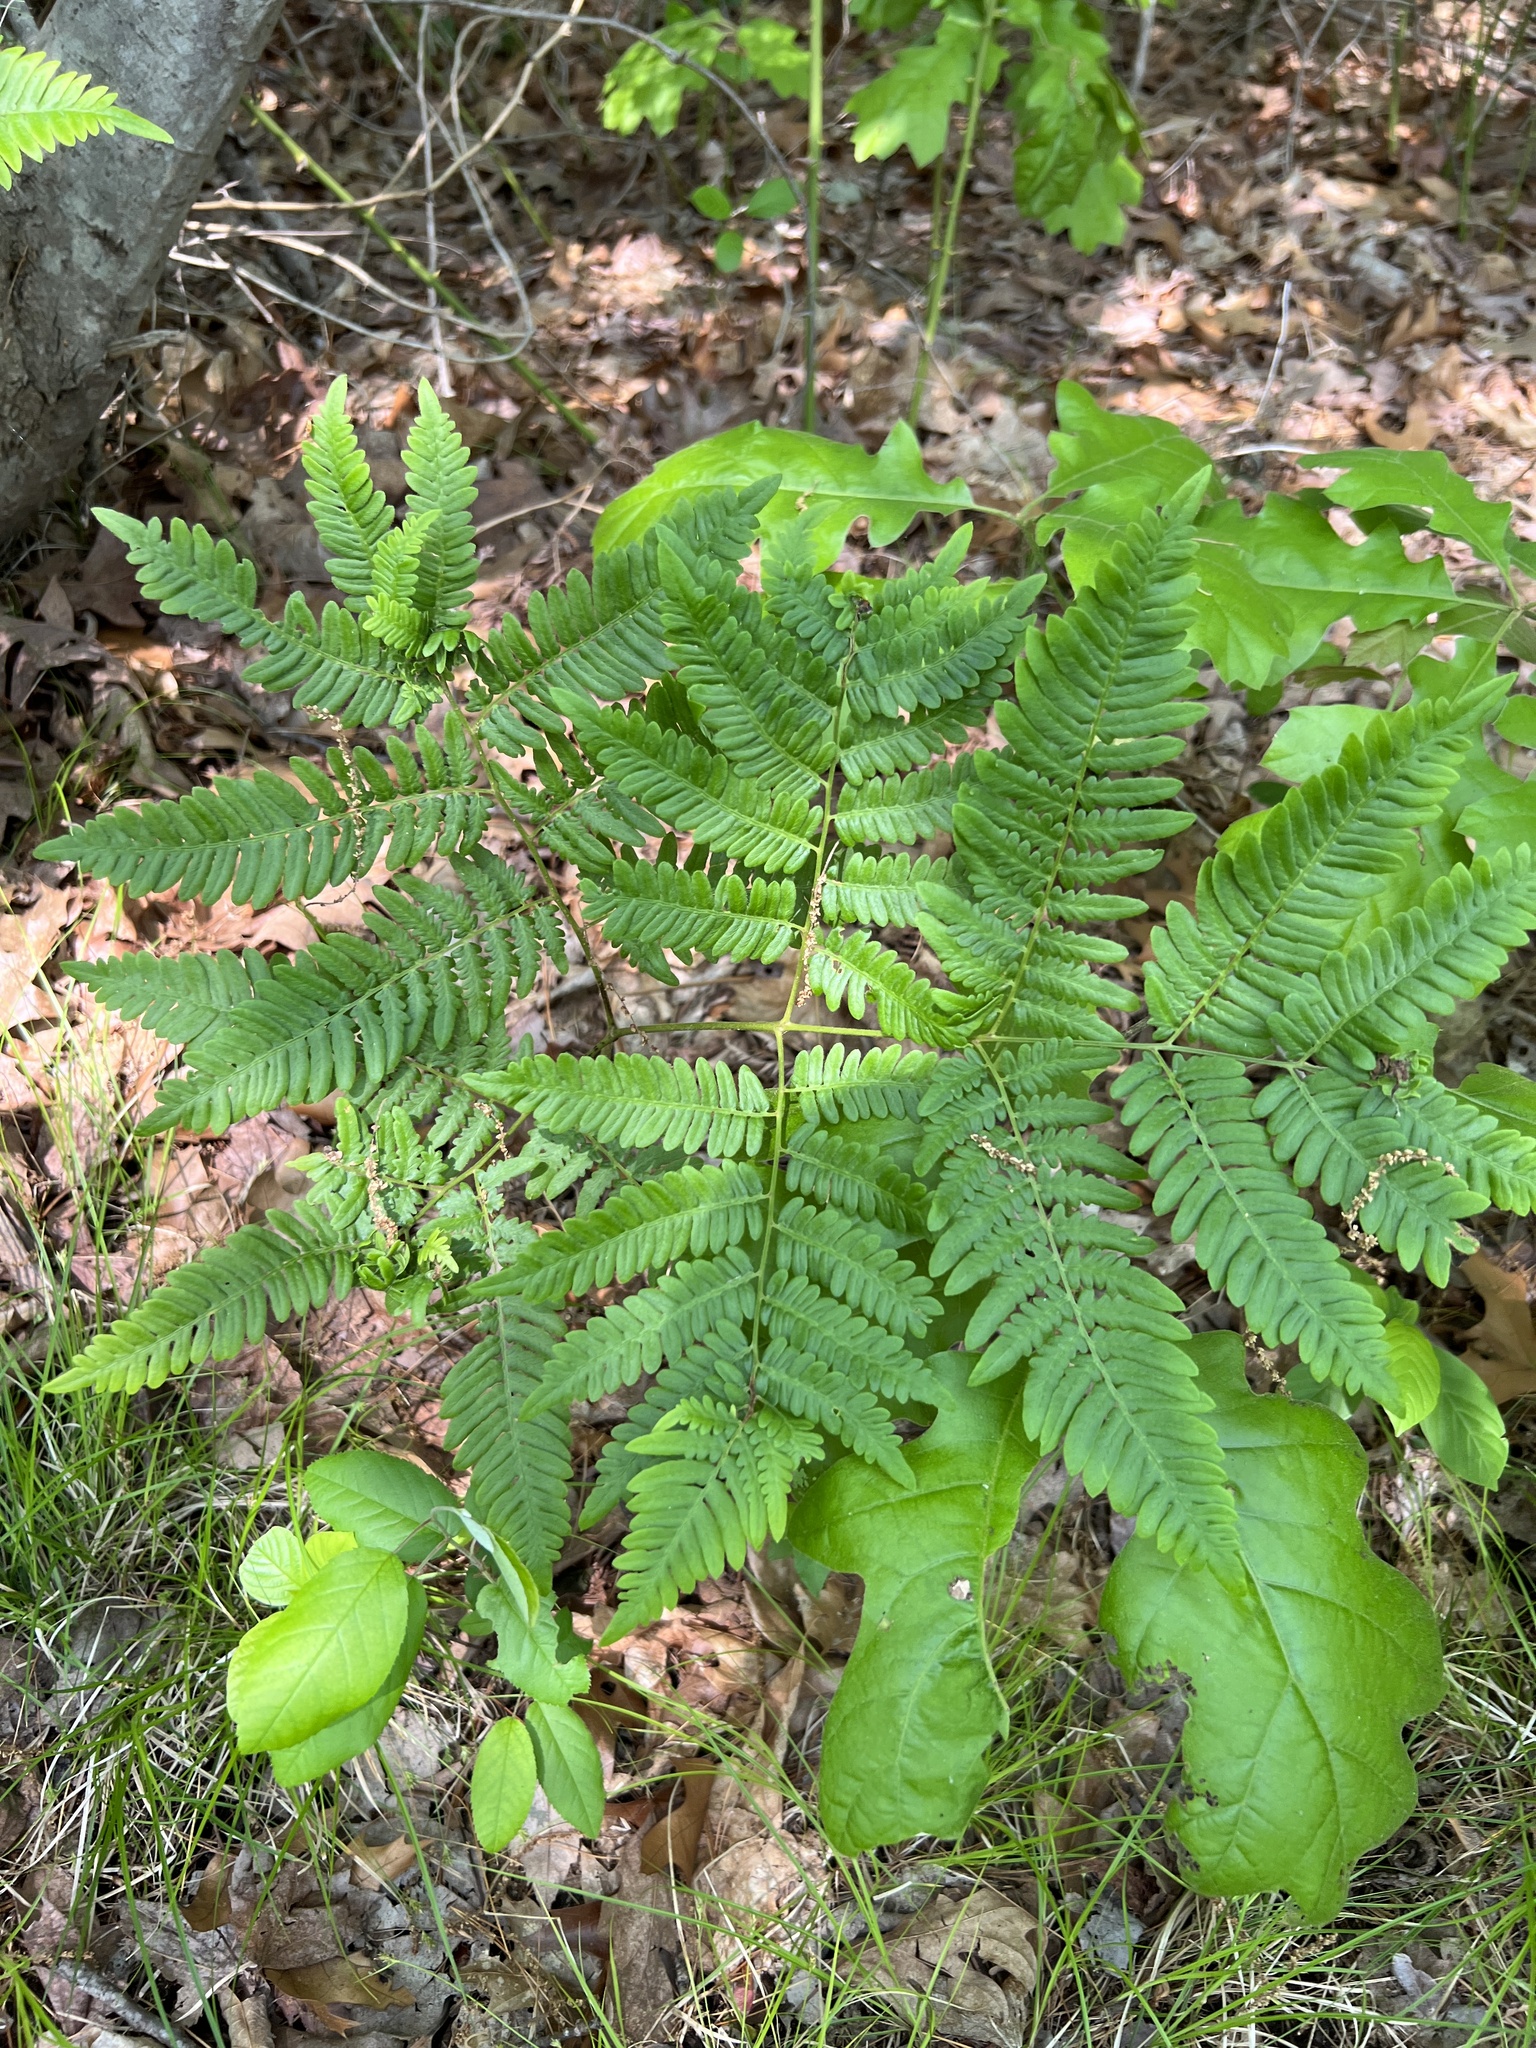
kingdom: Plantae
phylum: Tracheophyta
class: Polypodiopsida
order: Polypodiales
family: Dennstaedtiaceae
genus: Pteridium
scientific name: Pteridium aquilinum
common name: Bracken
